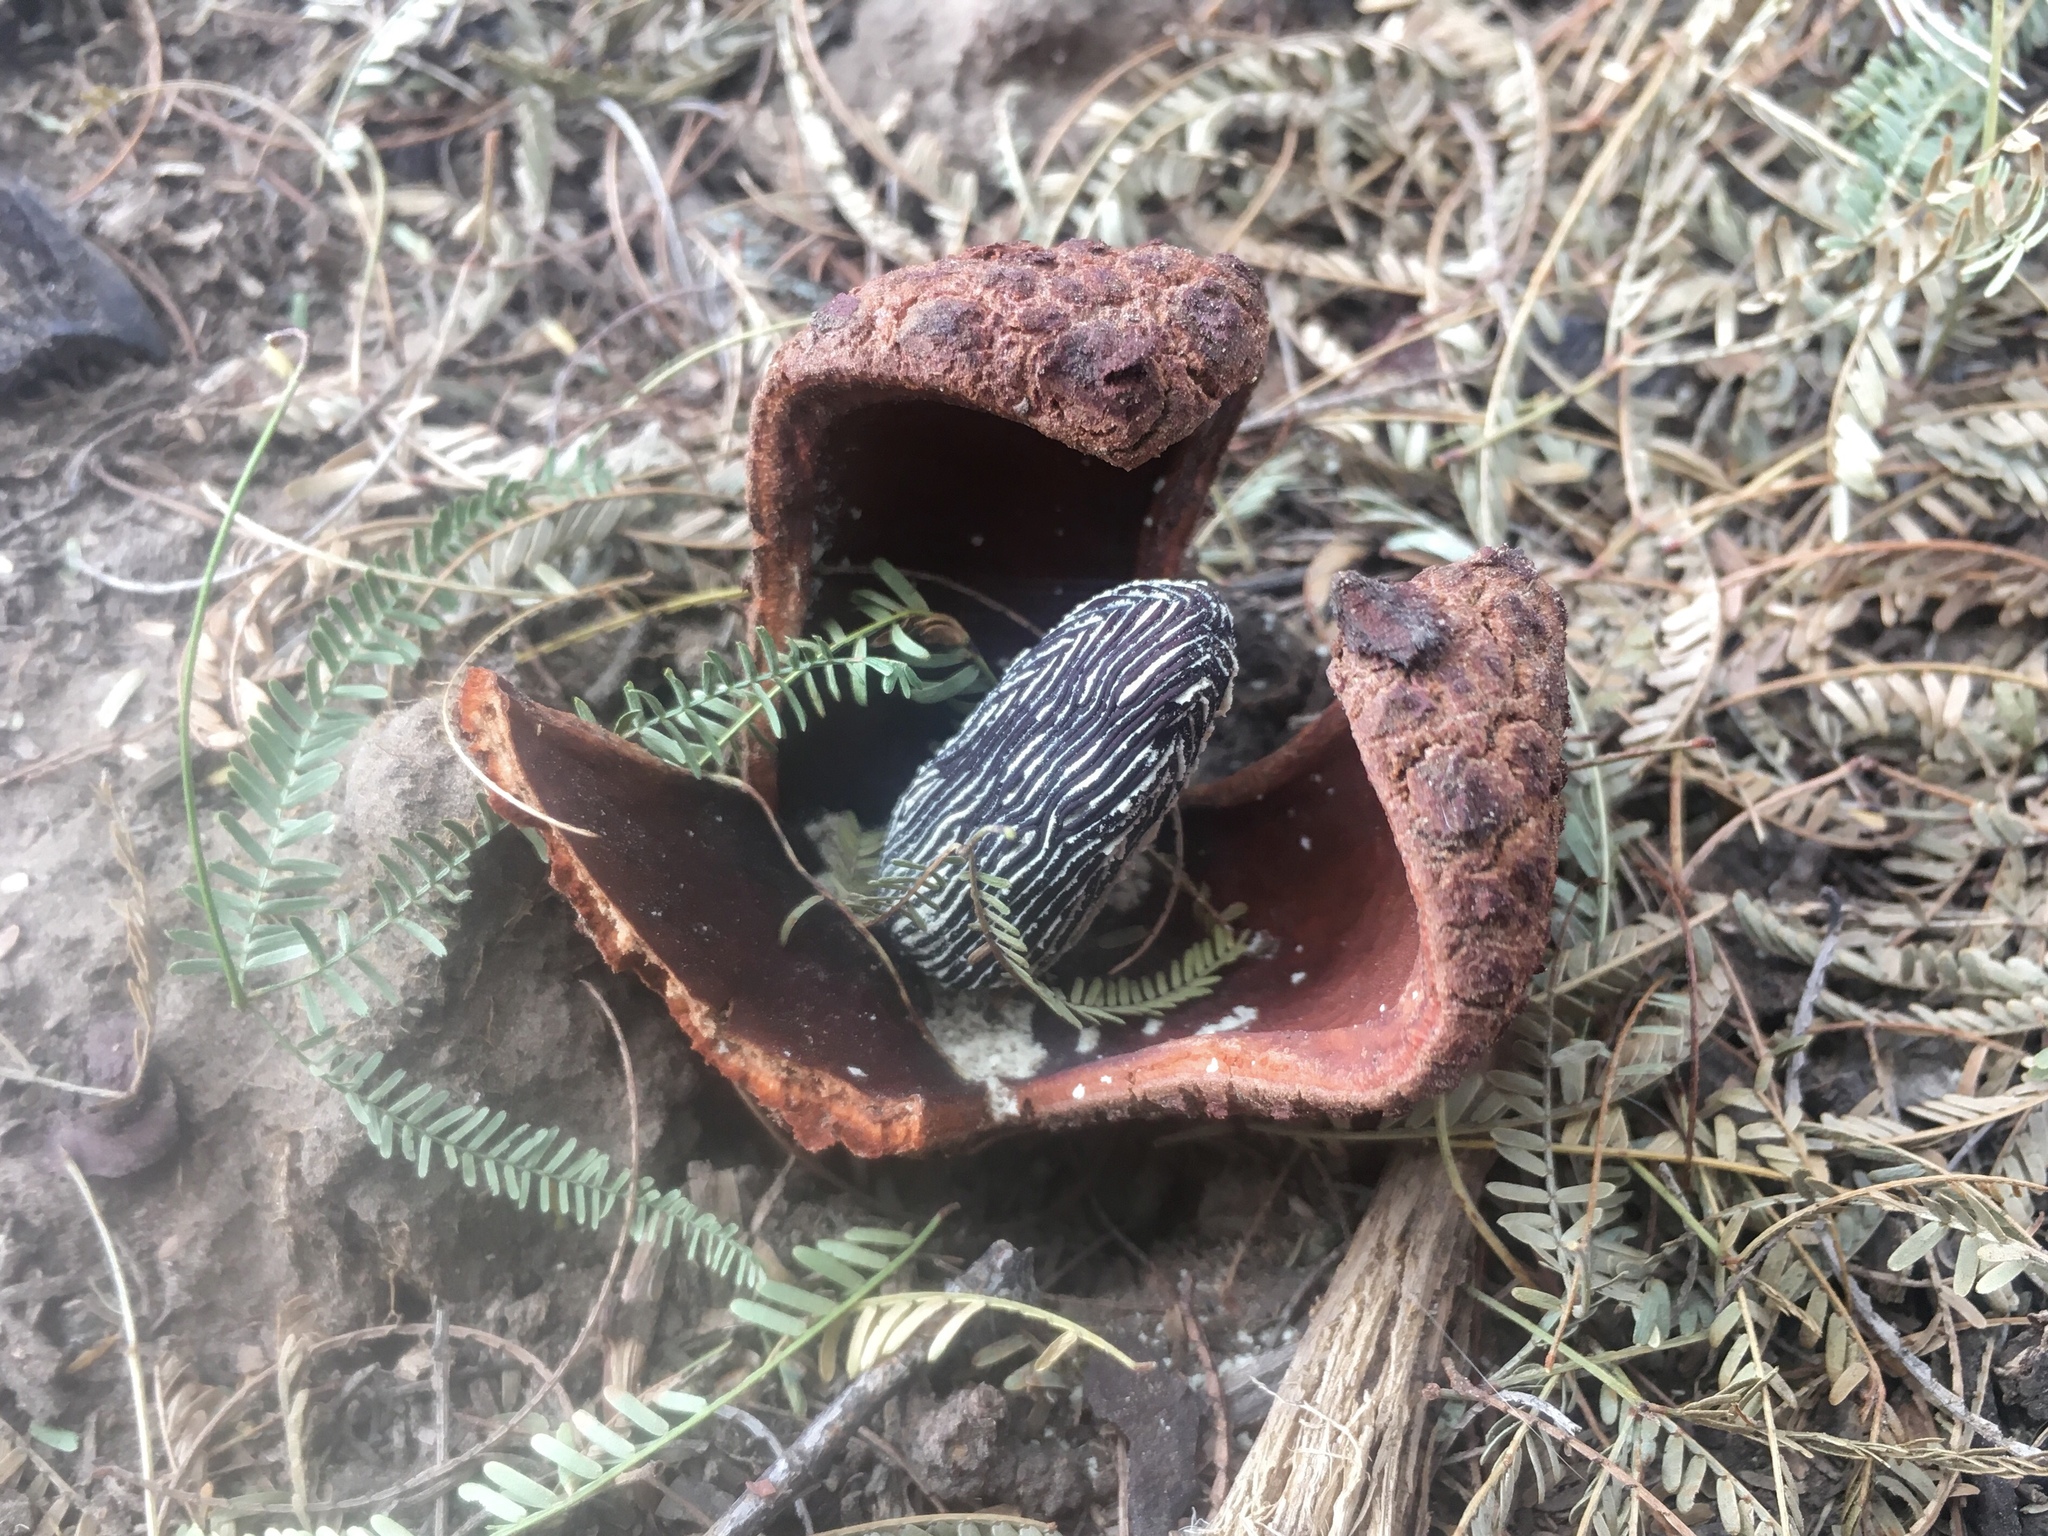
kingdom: Plantae
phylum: Tracheophyta
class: Magnoliopsida
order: Piperales
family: Hydnoraceae
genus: Prosopanche
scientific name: Prosopanche americana
